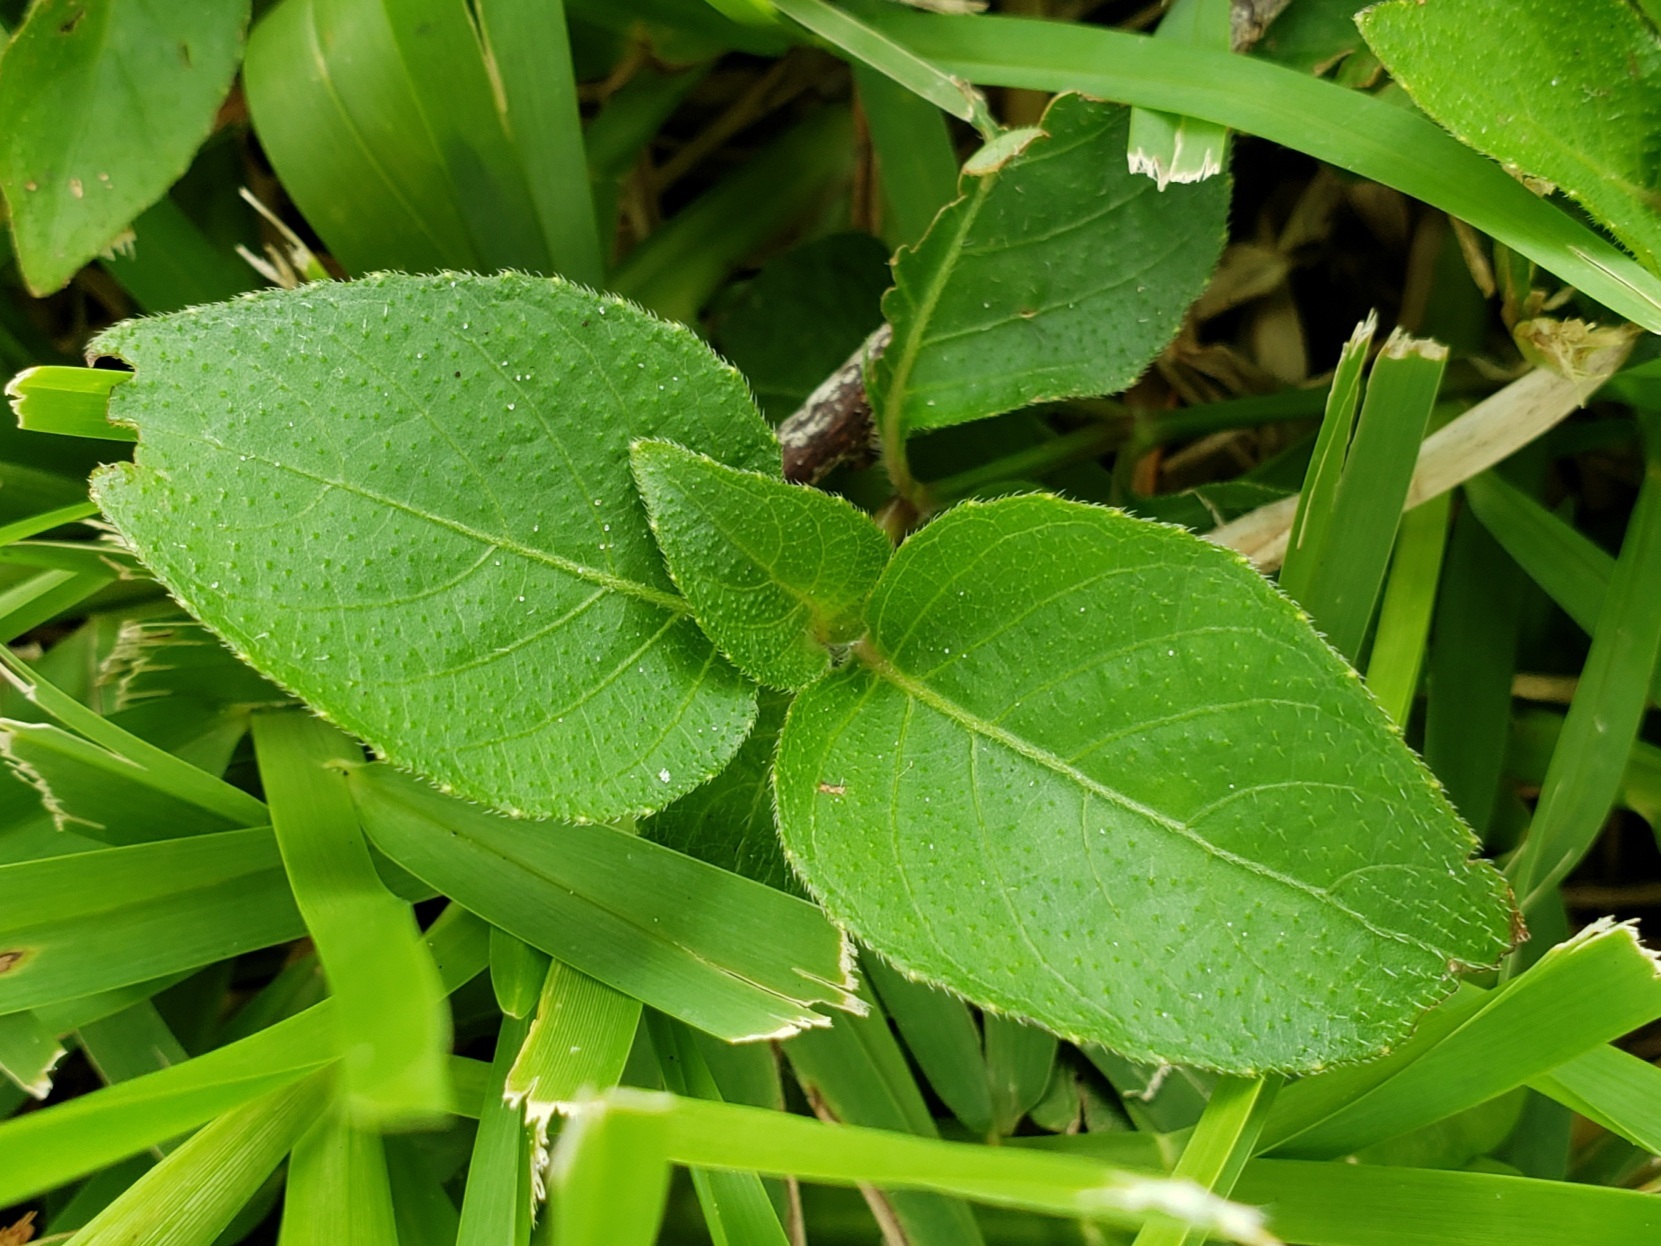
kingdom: Plantae
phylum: Tracheophyta
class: Magnoliopsida
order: Lamiales
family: Acanthaceae
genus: Ruellia
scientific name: Ruellia blechum
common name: Browne's blechum
